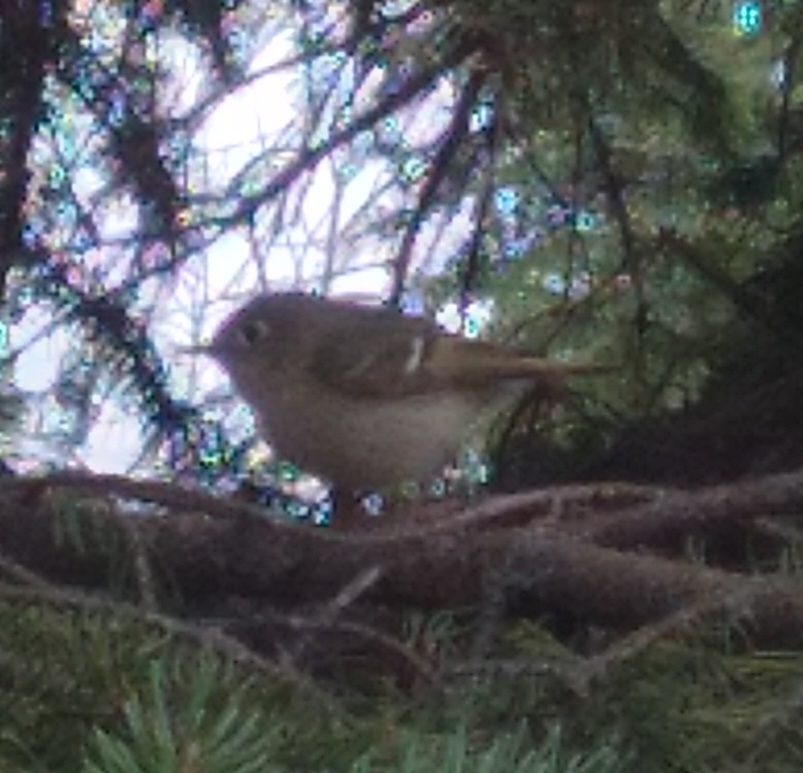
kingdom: Animalia
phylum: Chordata
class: Aves
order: Passeriformes
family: Regulidae
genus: Regulus
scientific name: Regulus calendula
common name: Ruby-crowned kinglet
